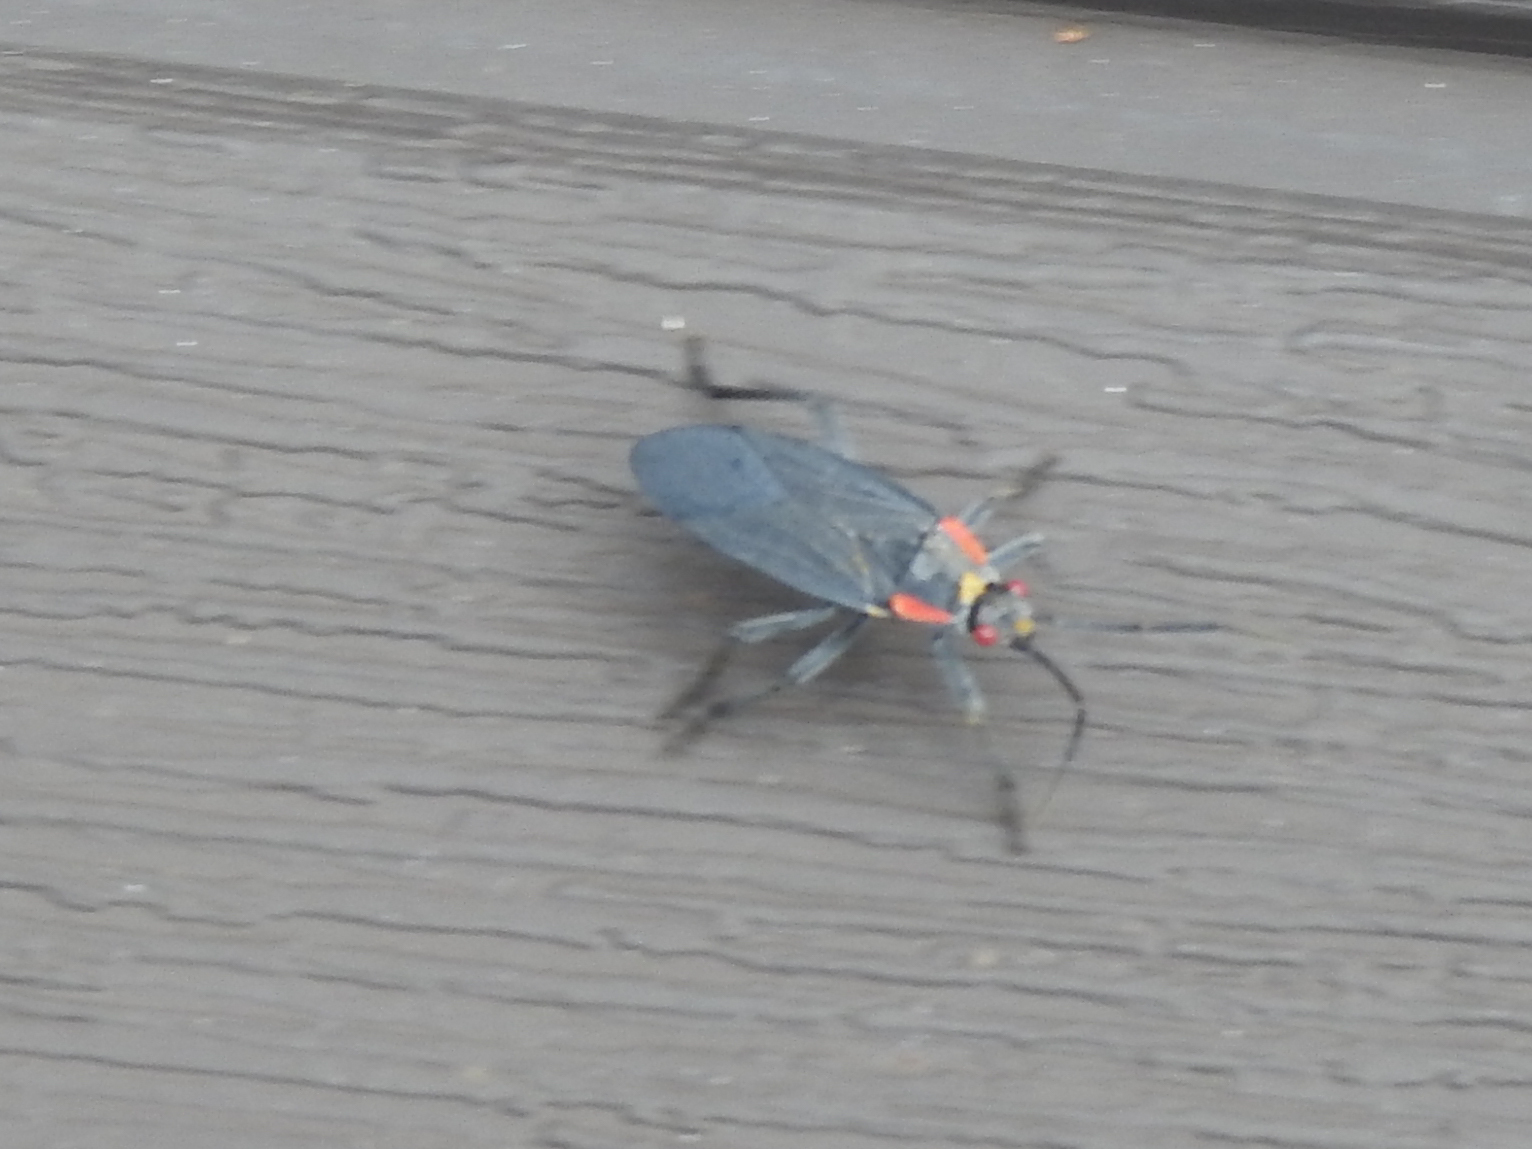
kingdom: Animalia
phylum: Arthropoda
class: Insecta
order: Hemiptera
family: Rhopalidae
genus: Jadera
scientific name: Jadera haematoloma
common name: Red-shouldered bug
